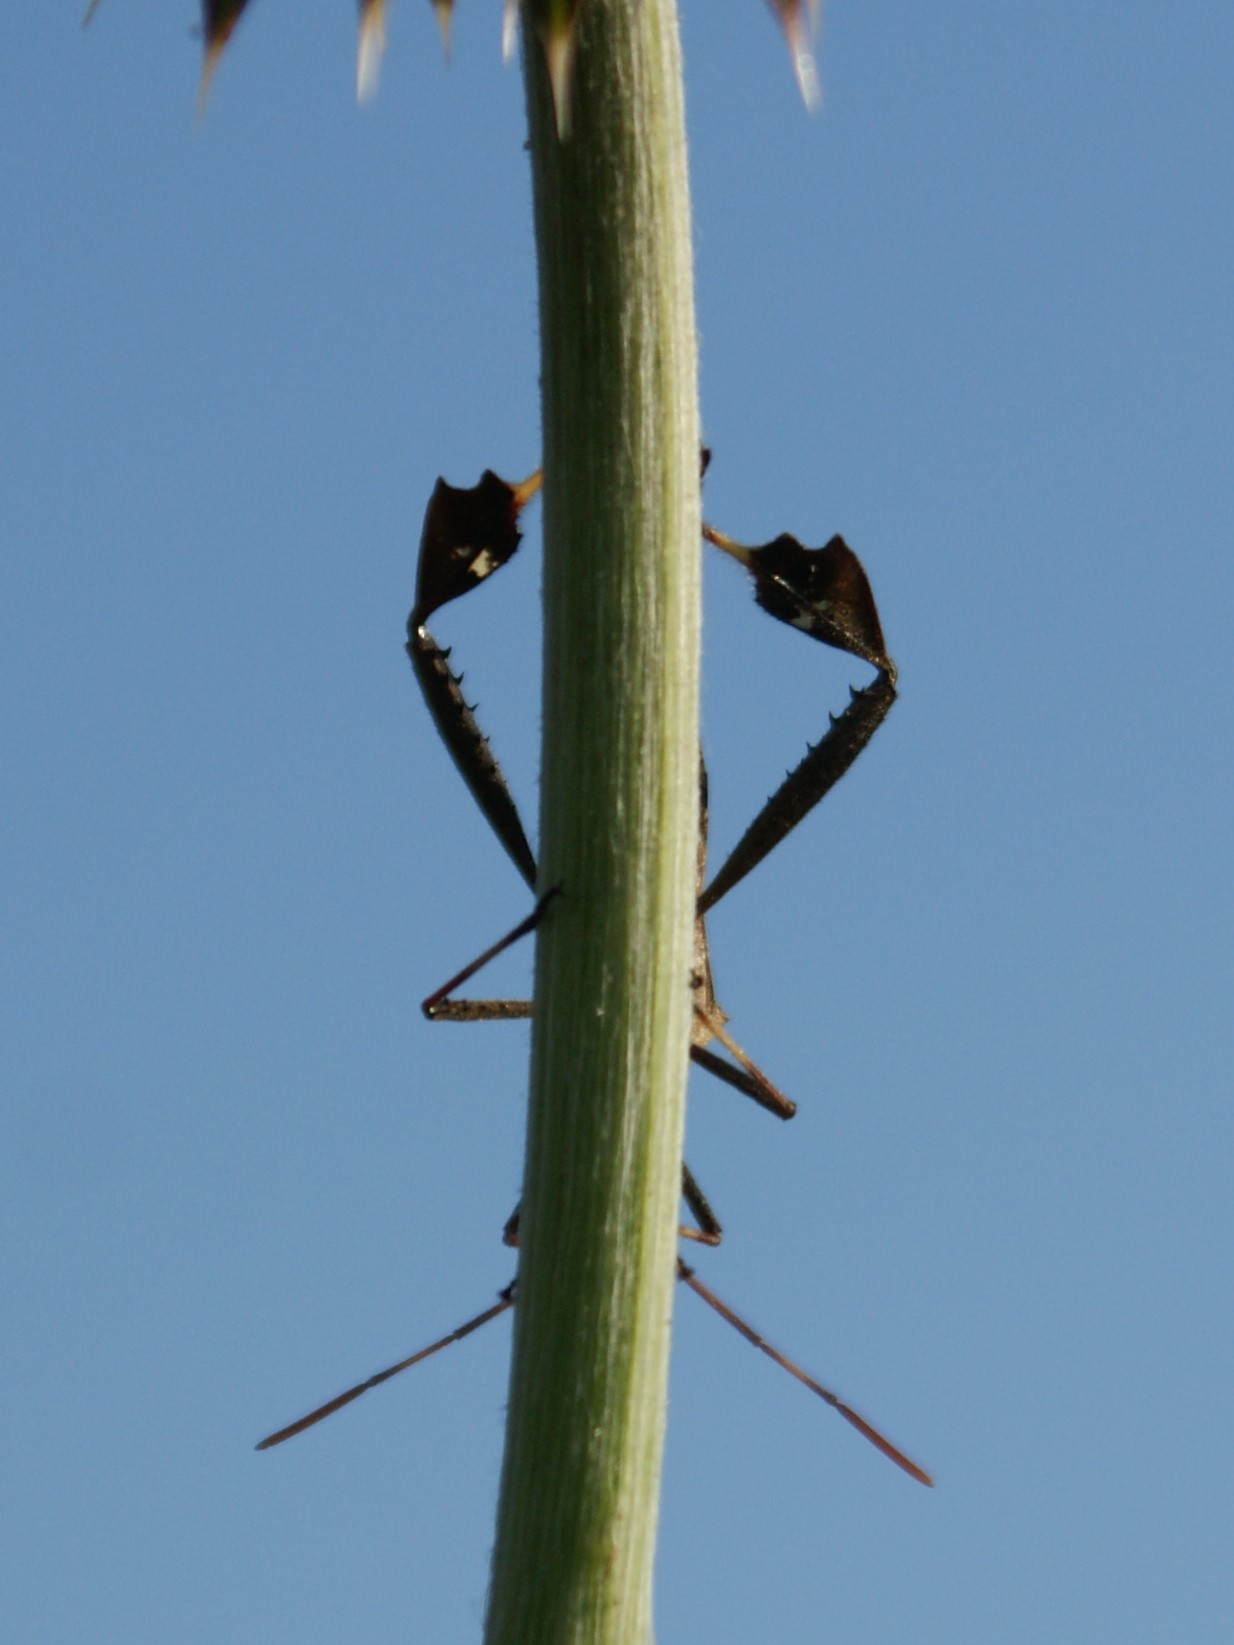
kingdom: Animalia
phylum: Arthropoda
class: Insecta
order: Hemiptera
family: Coreidae
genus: Leptoglossus
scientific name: Leptoglossus phyllopus
